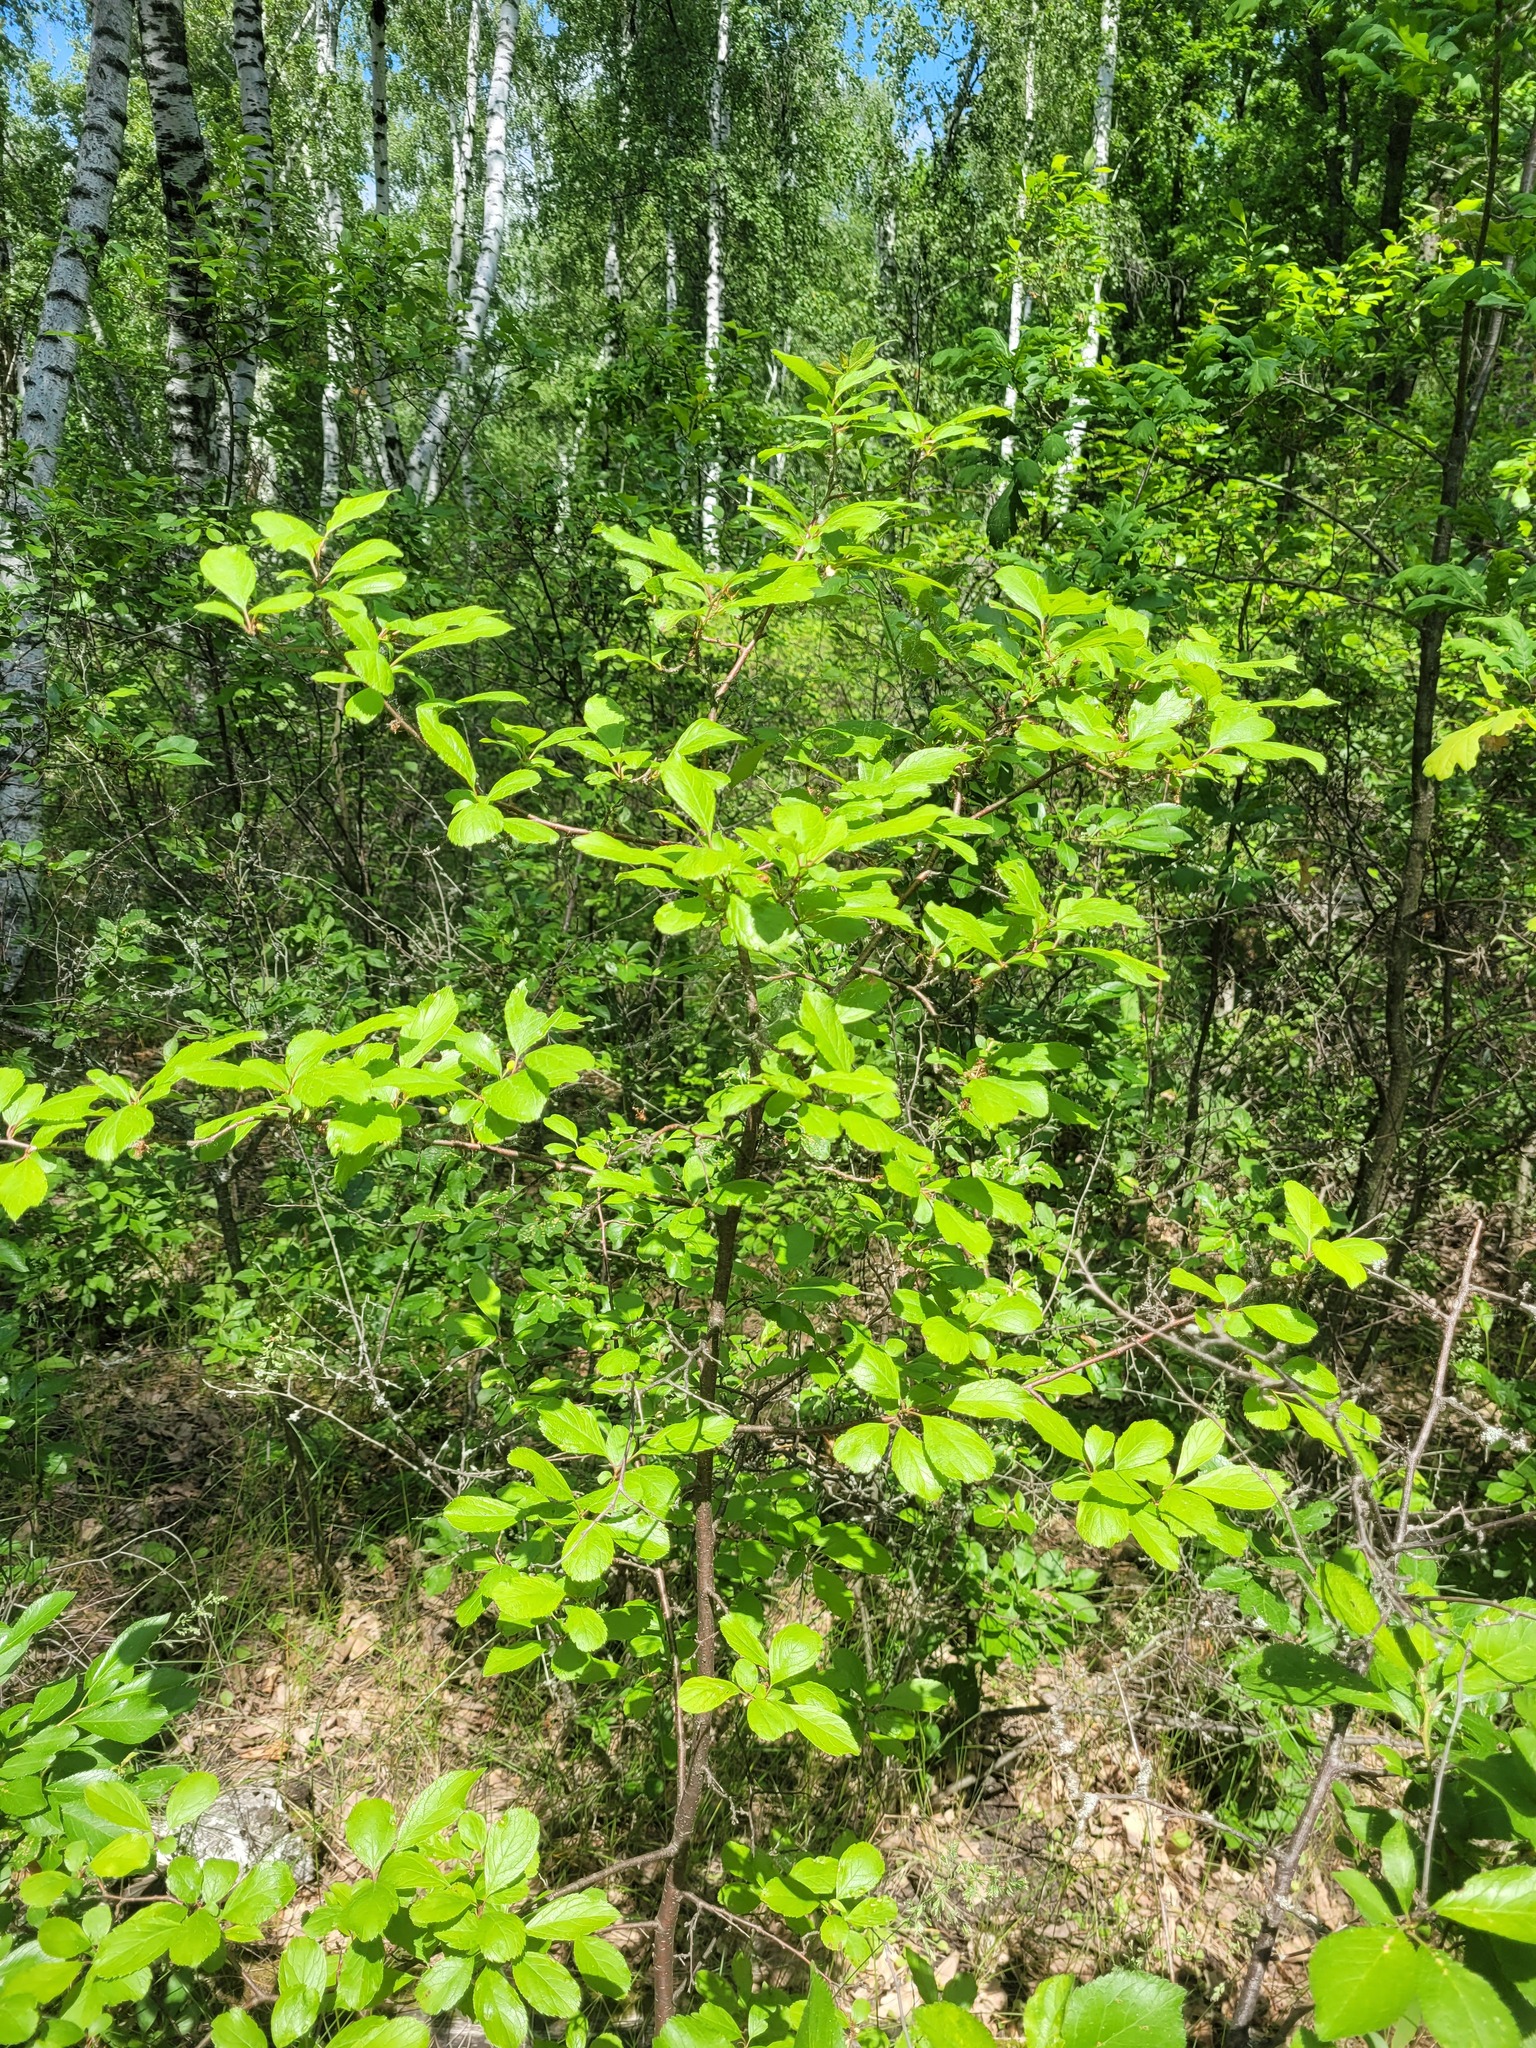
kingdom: Plantae
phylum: Tracheophyta
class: Magnoliopsida
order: Rosales
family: Rosaceae
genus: Prunus
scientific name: Prunus spinosa
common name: Blackthorn
